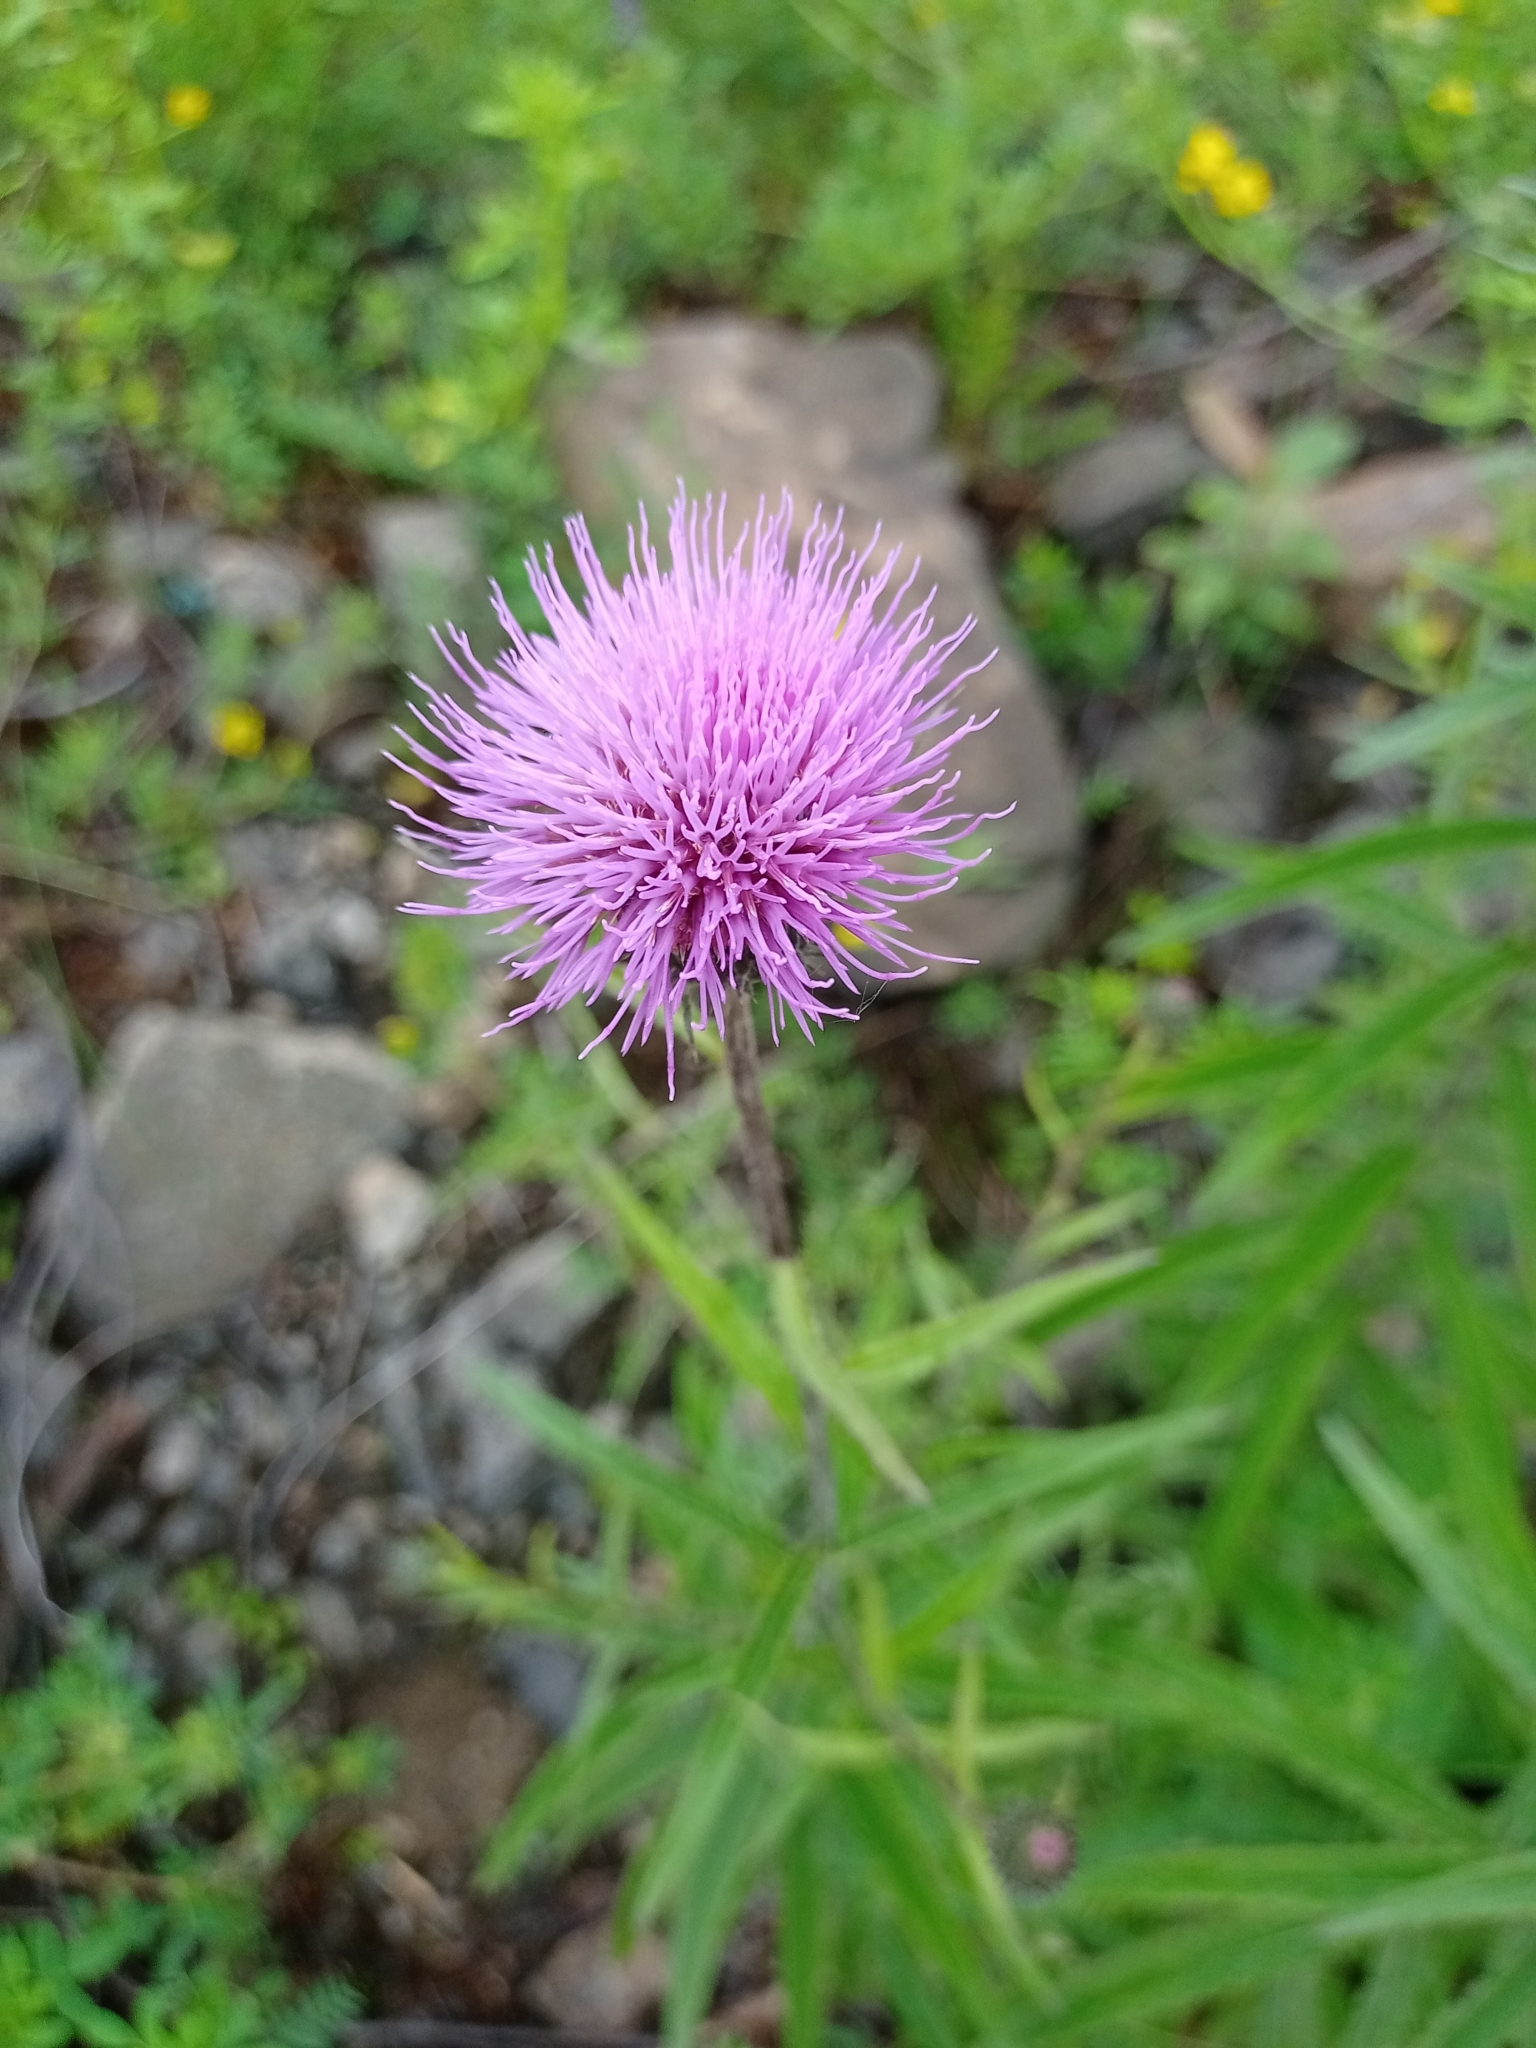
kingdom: Plantae
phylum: Tracheophyta
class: Magnoliopsida
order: Asterales
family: Asteraceae
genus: Cirsium
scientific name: Cirsium serratuloides
